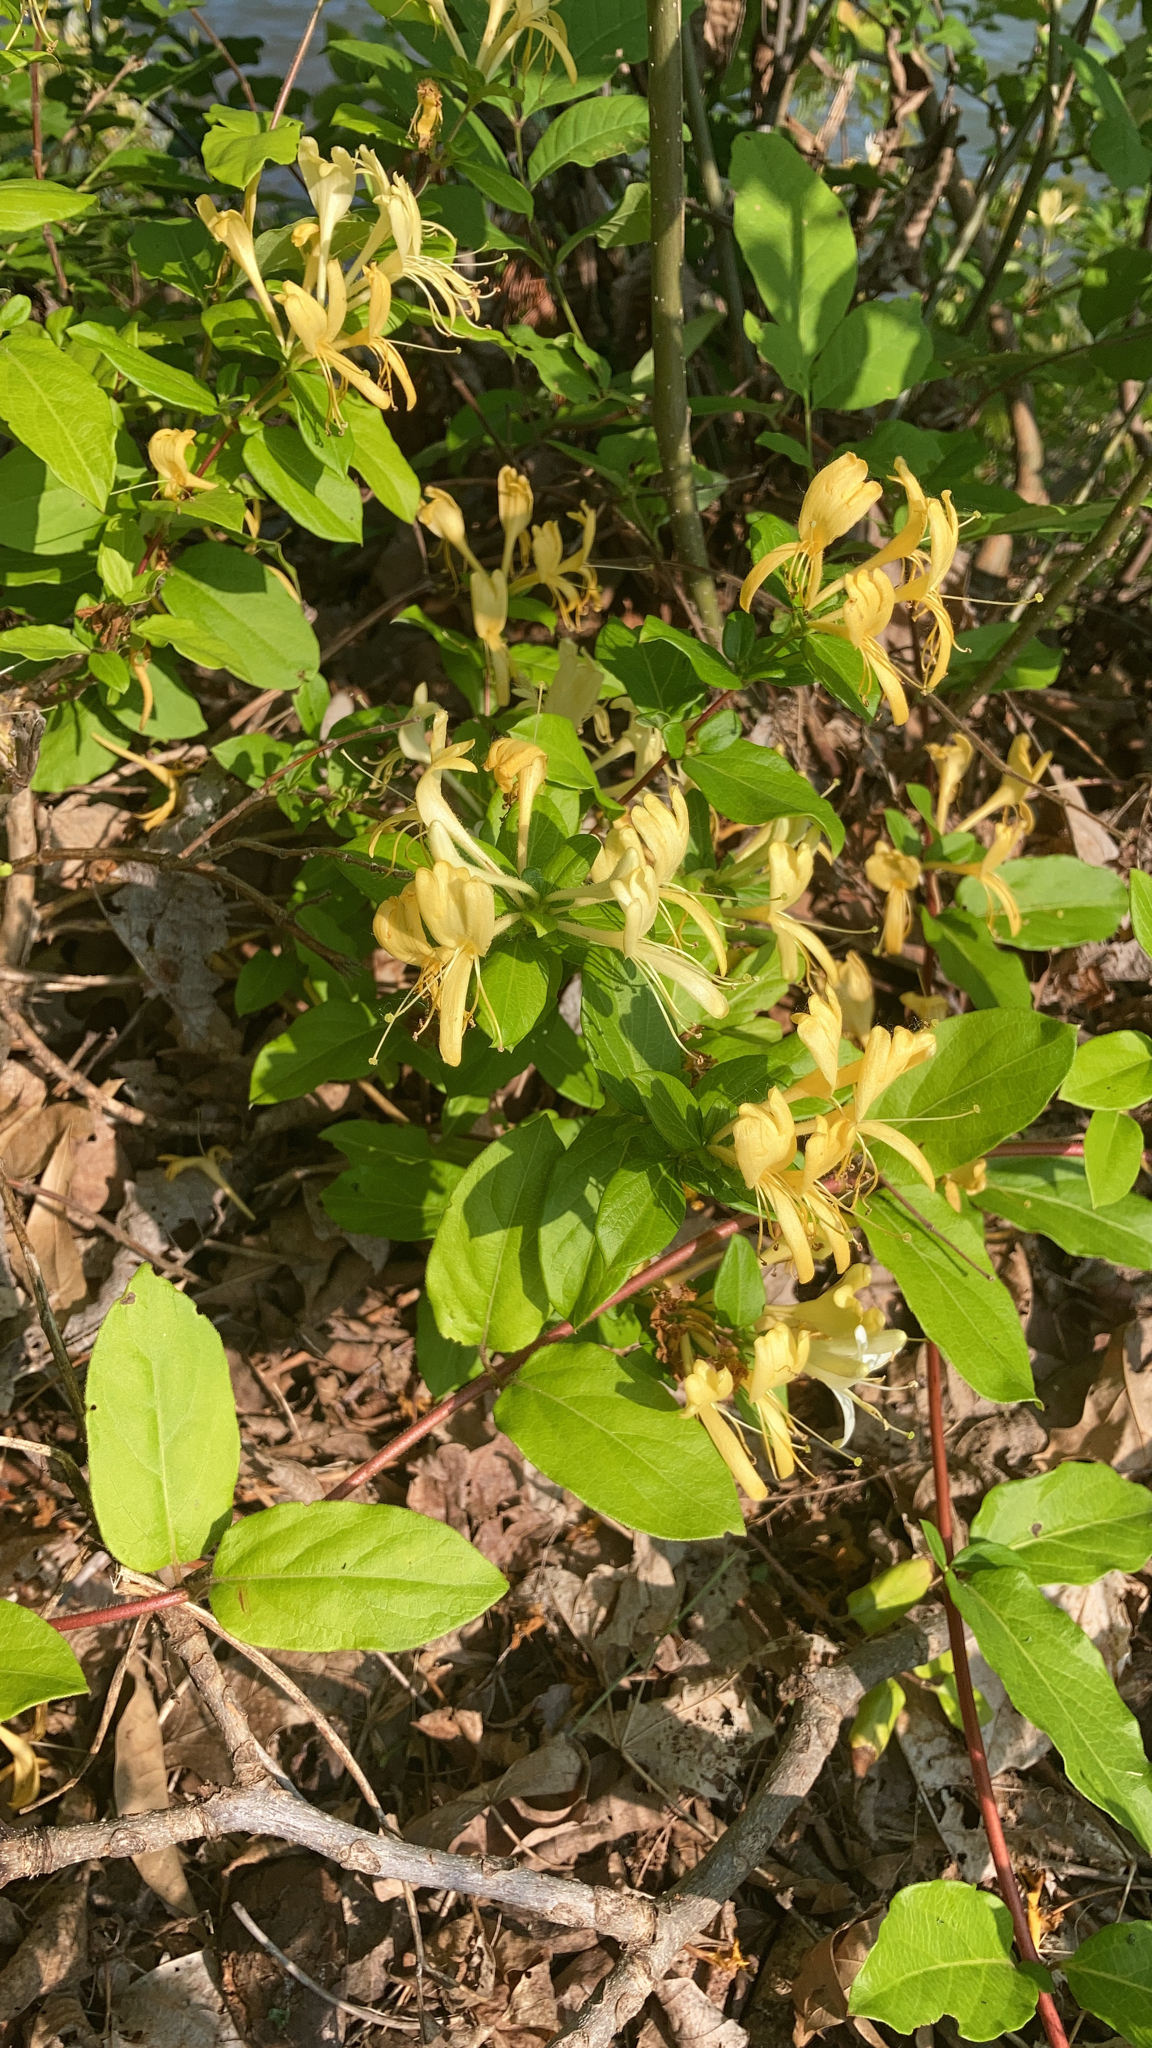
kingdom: Plantae
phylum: Tracheophyta
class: Magnoliopsida
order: Dipsacales
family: Caprifoliaceae
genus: Lonicera
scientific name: Lonicera japonica
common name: Japanese honeysuckle
